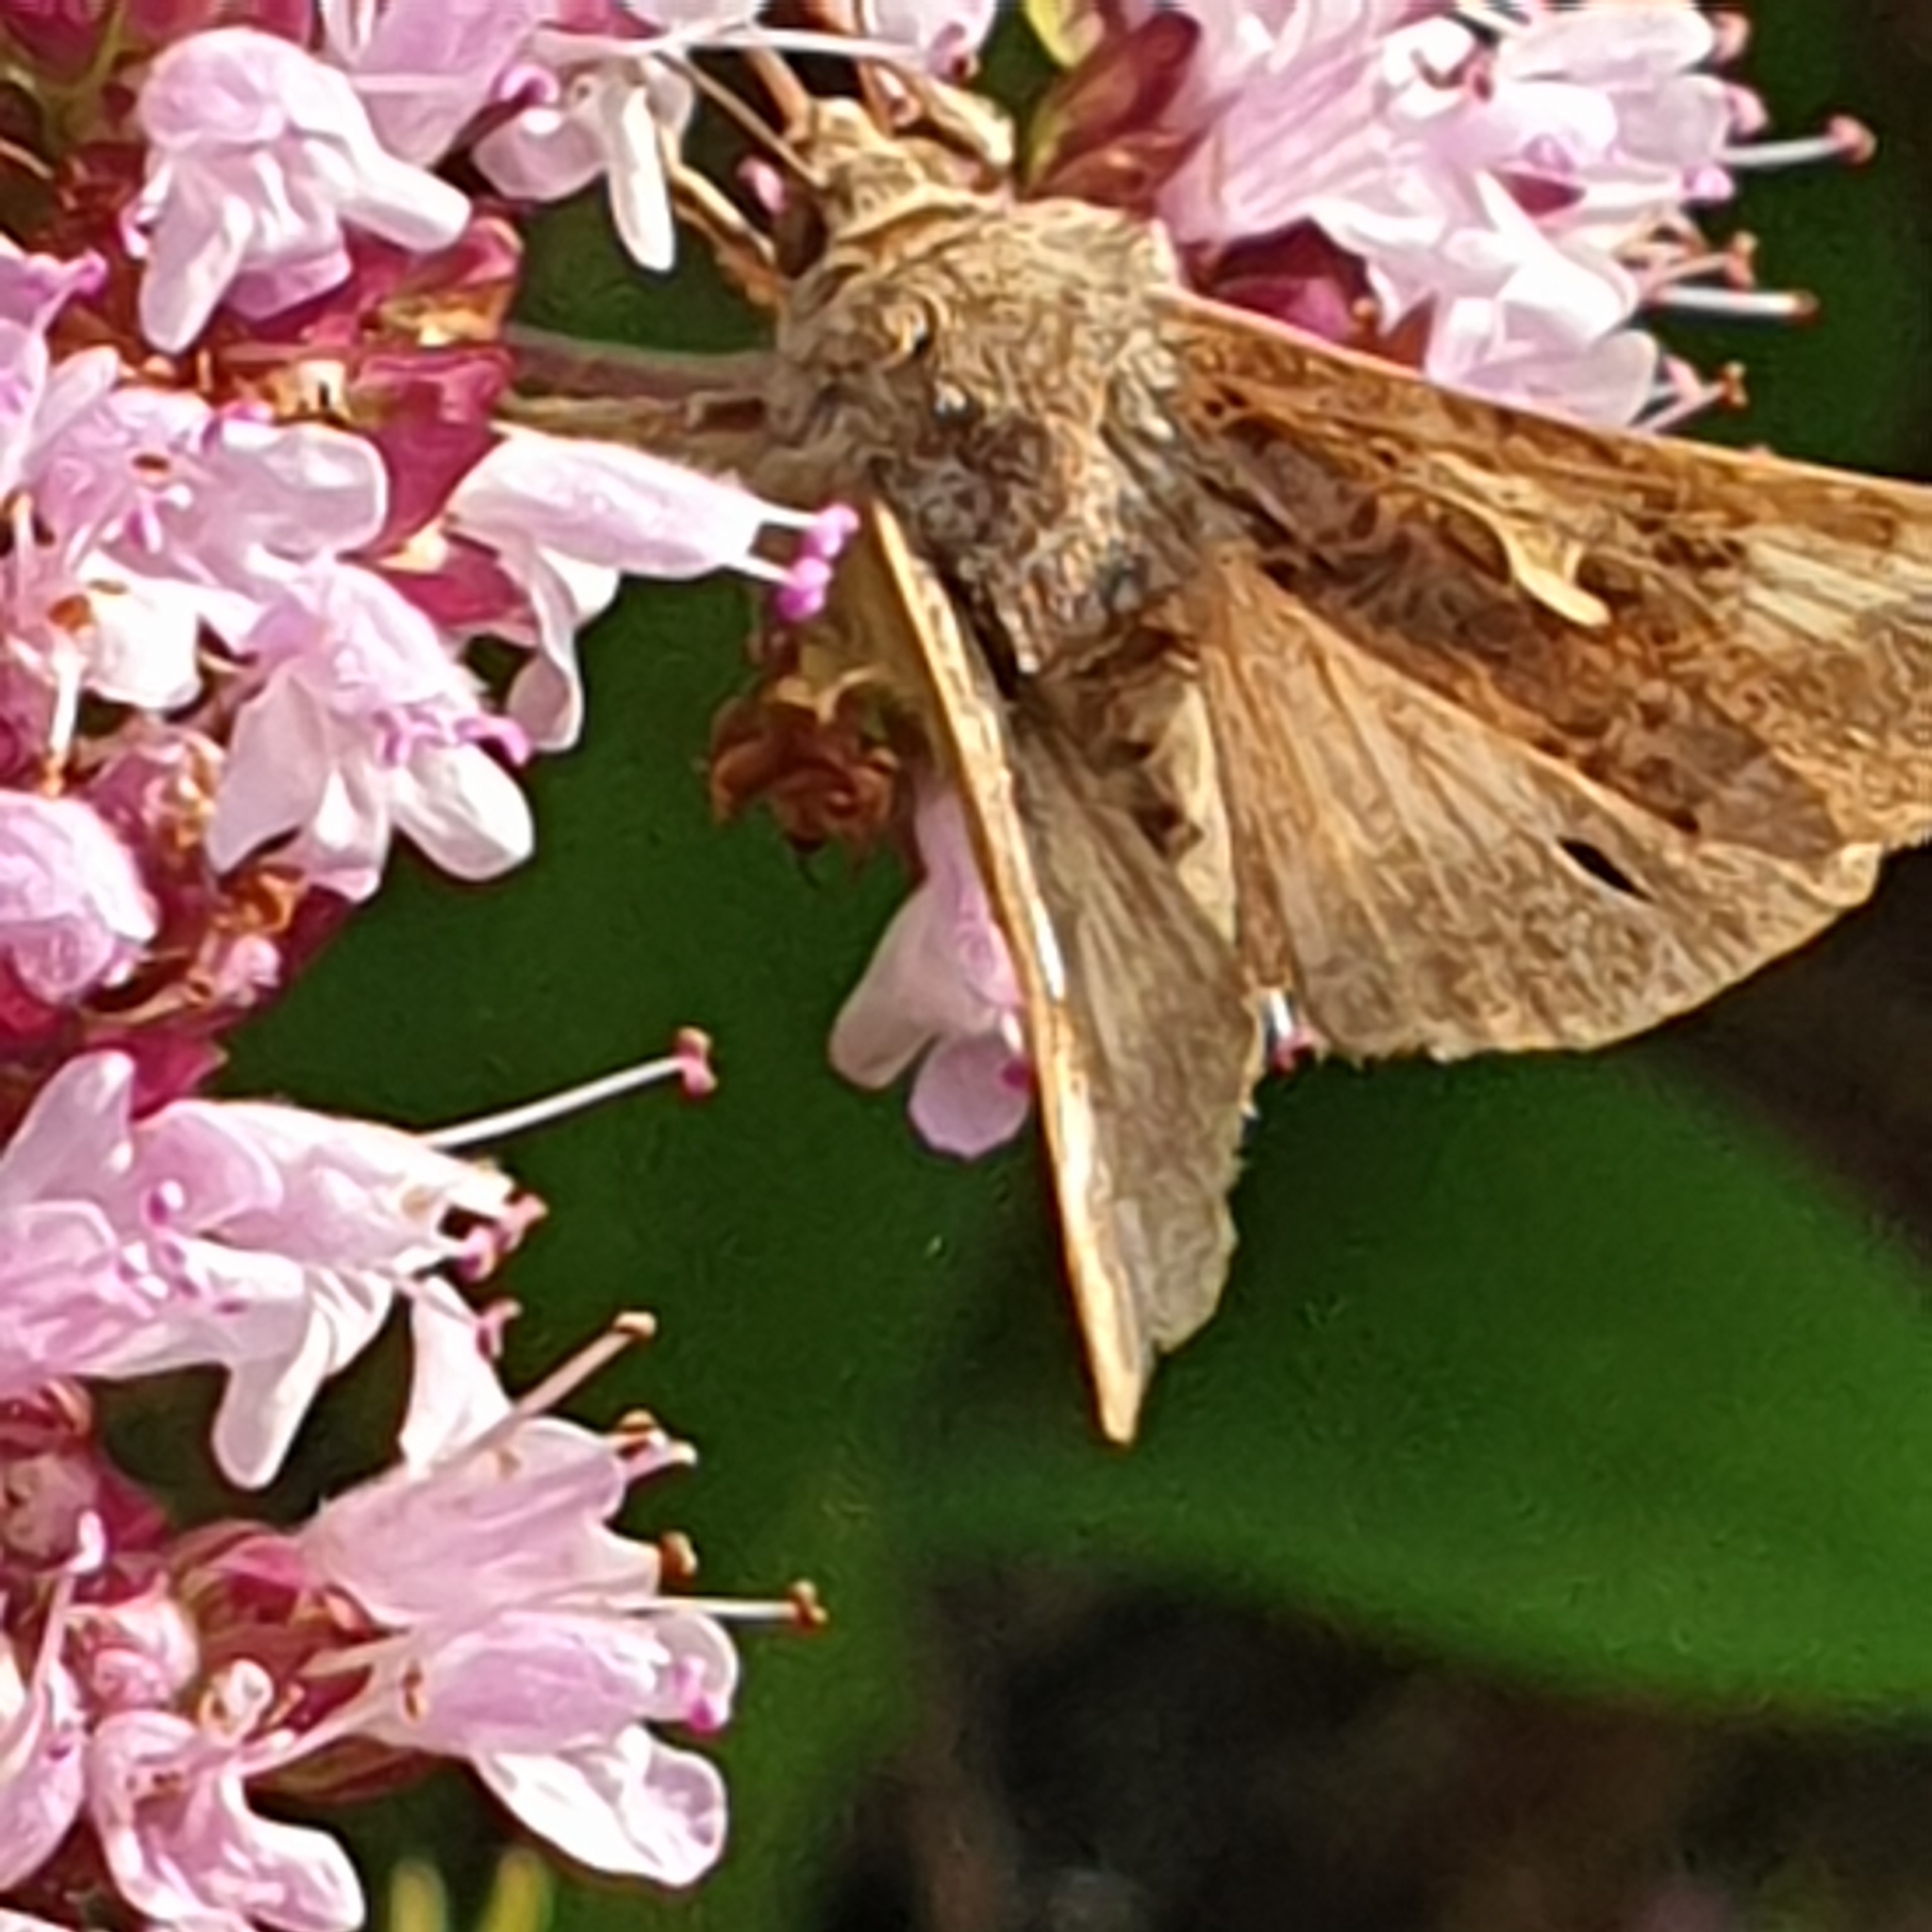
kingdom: Animalia
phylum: Arthropoda
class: Insecta
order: Lepidoptera
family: Noctuidae
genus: Autographa
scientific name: Autographa gamma
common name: Silver y
